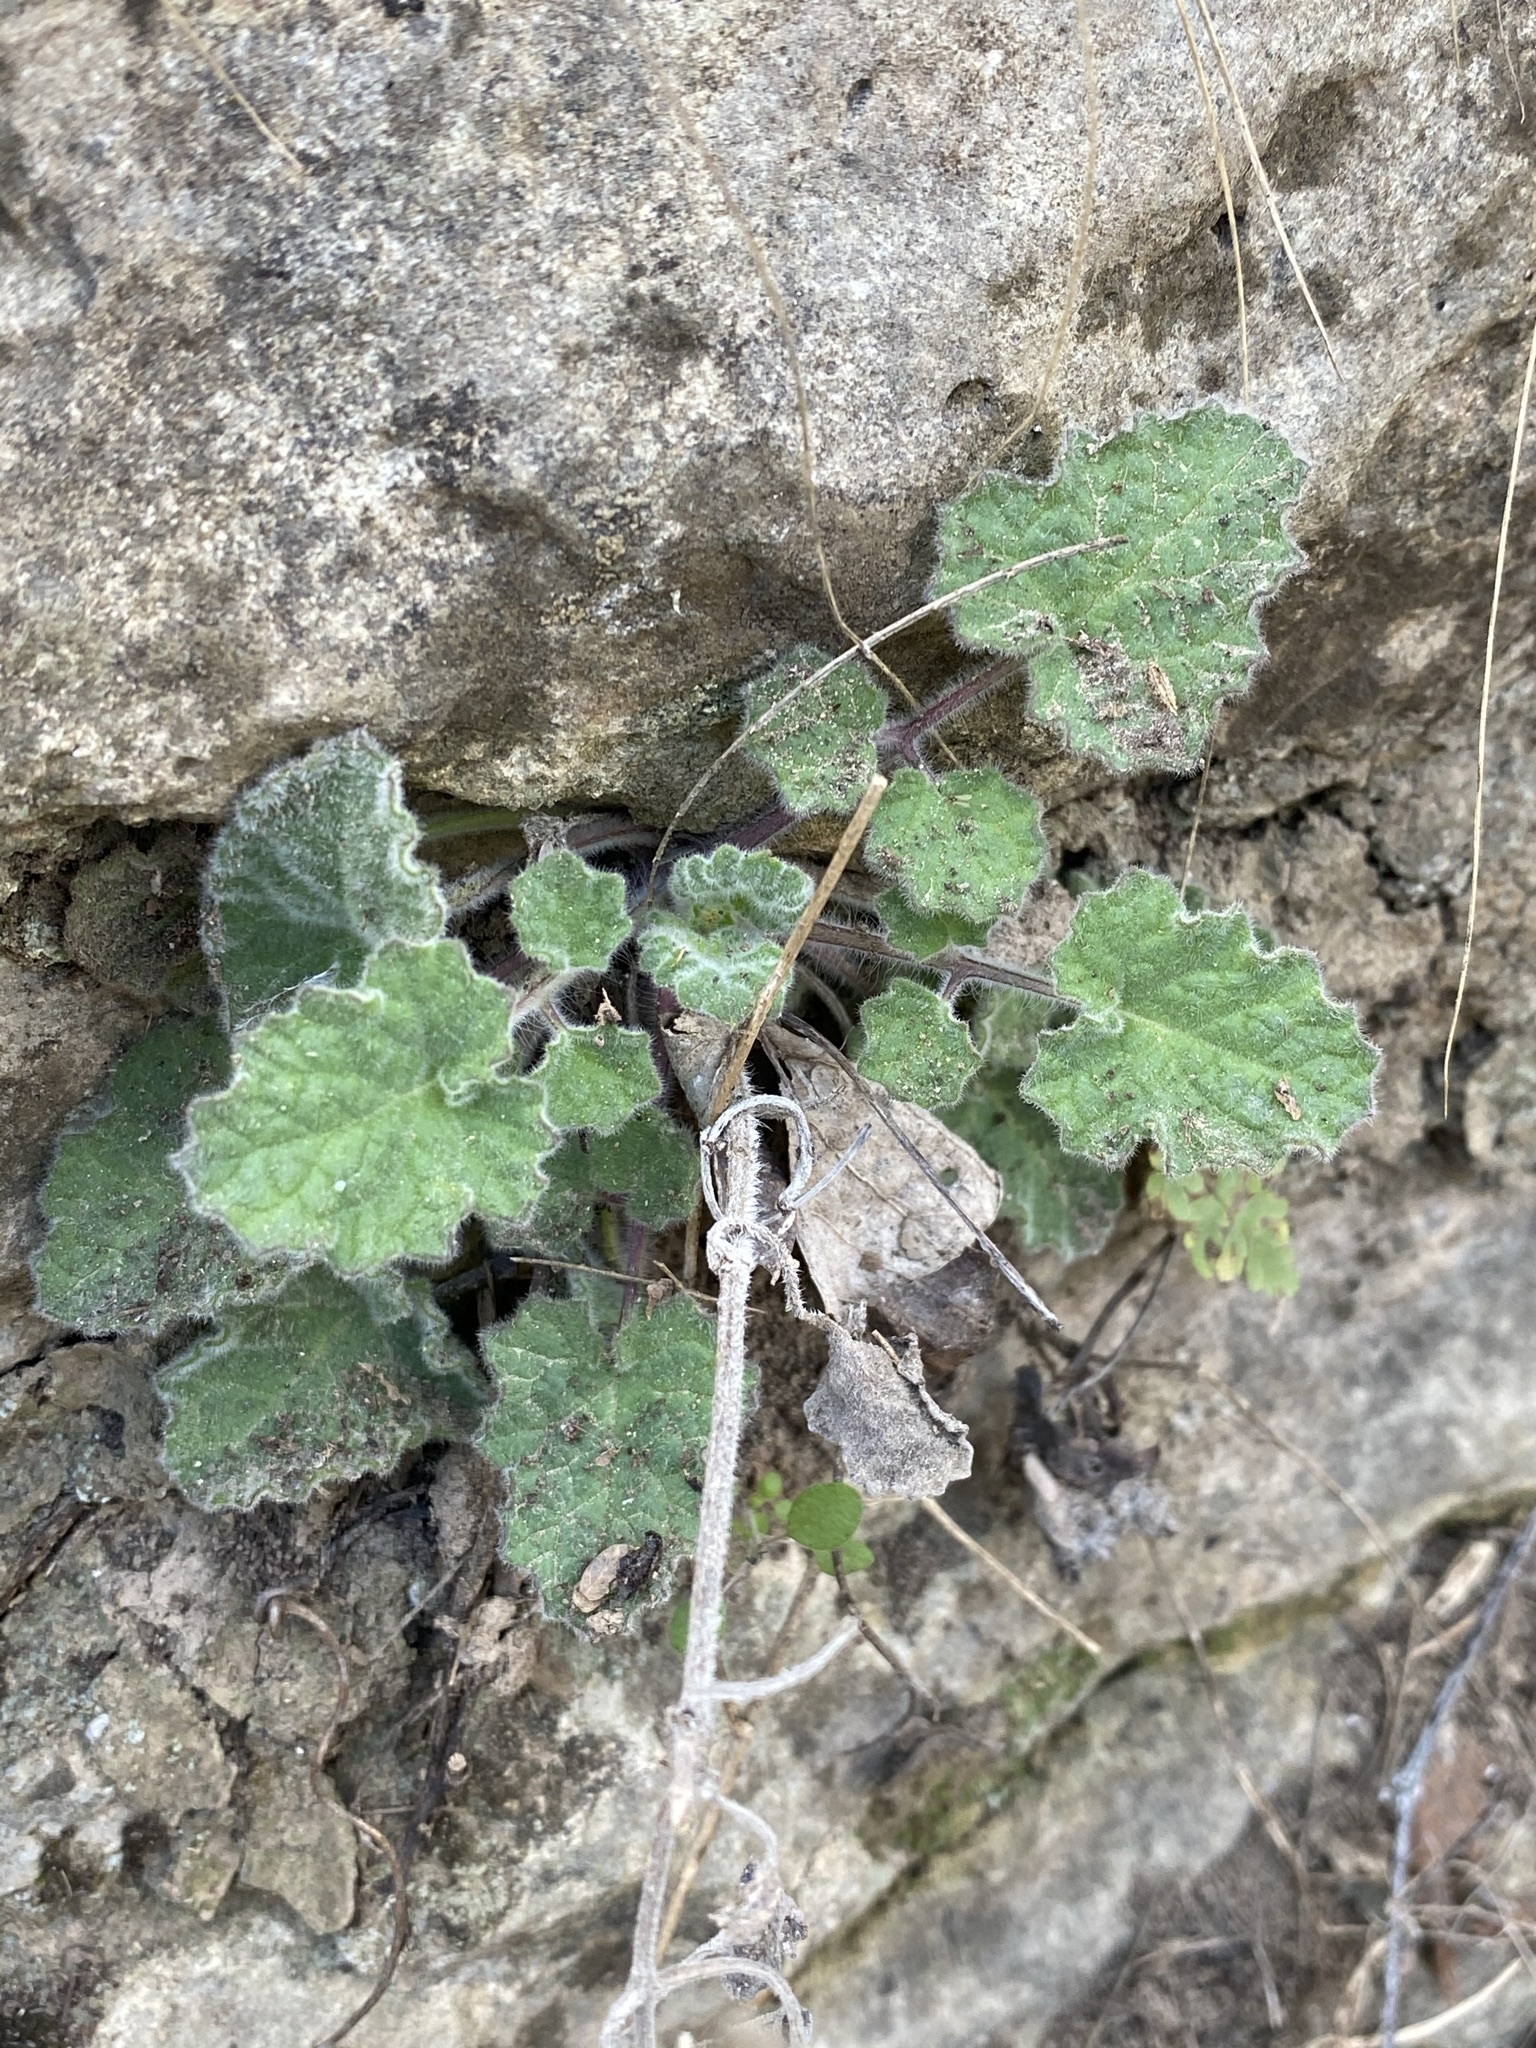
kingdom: Plantae
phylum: Tracheophyta
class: Magnoliopsida
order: Lamiales
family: Lamiaceae
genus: Salvia
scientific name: Salvia roemeriana
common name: Cedar sage
